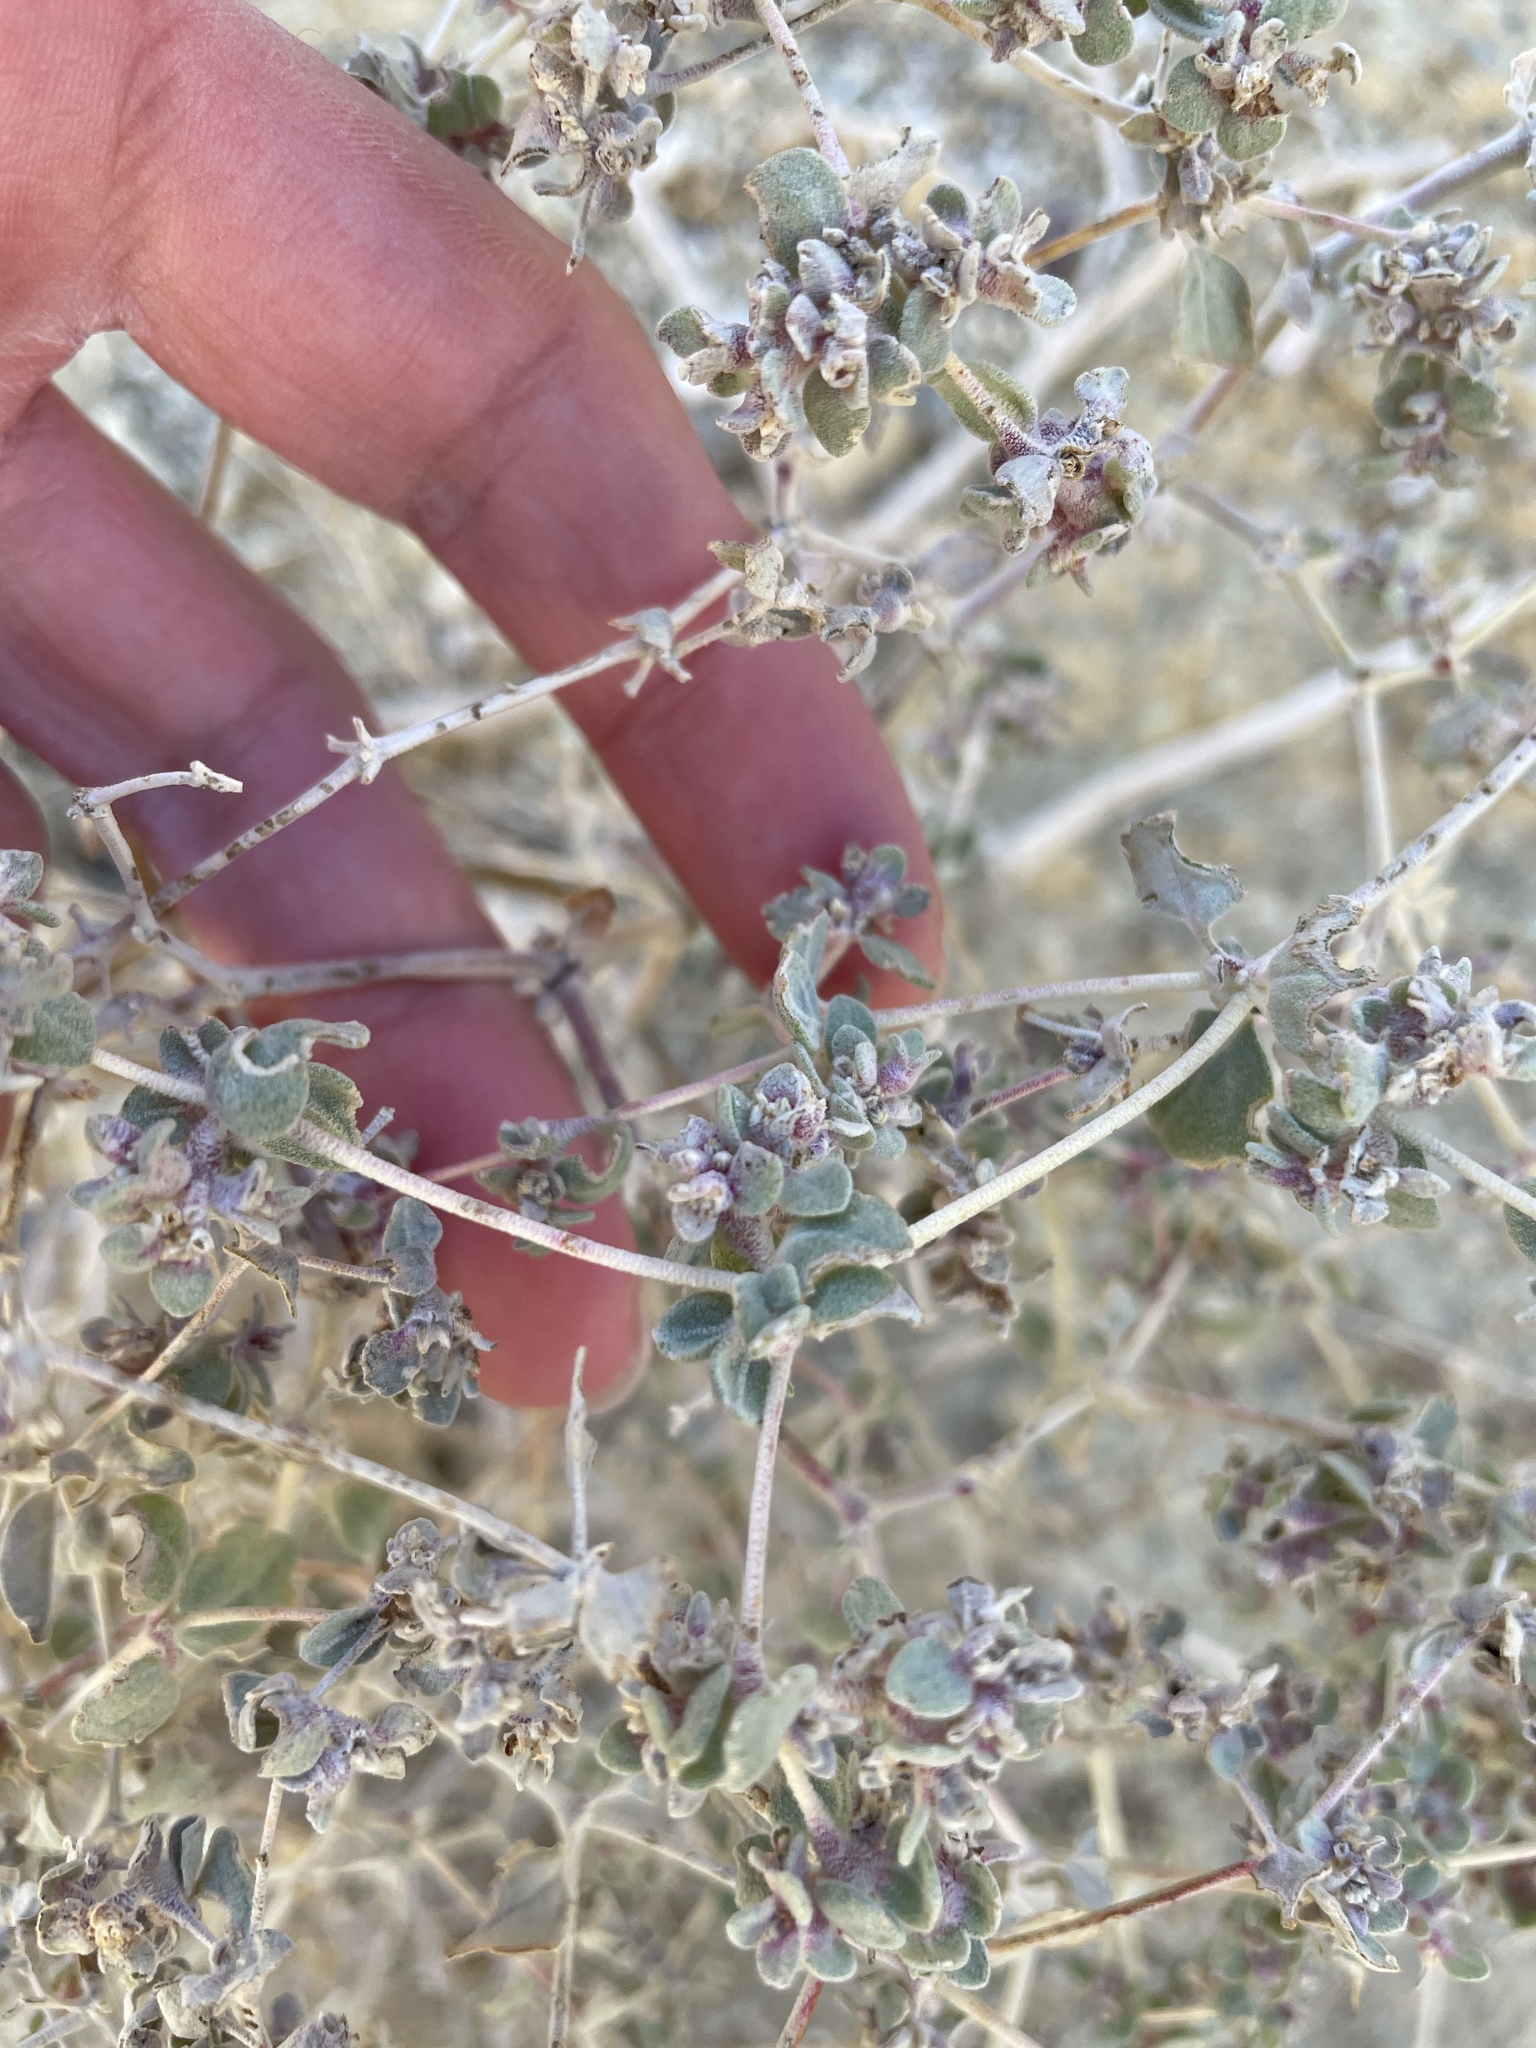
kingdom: Plantae
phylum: Tracheophyta
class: Magnoliopsida
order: Caryophyllales
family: Amaranthaceae
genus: Tidestromia
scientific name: Tidestromia suffruticosa
